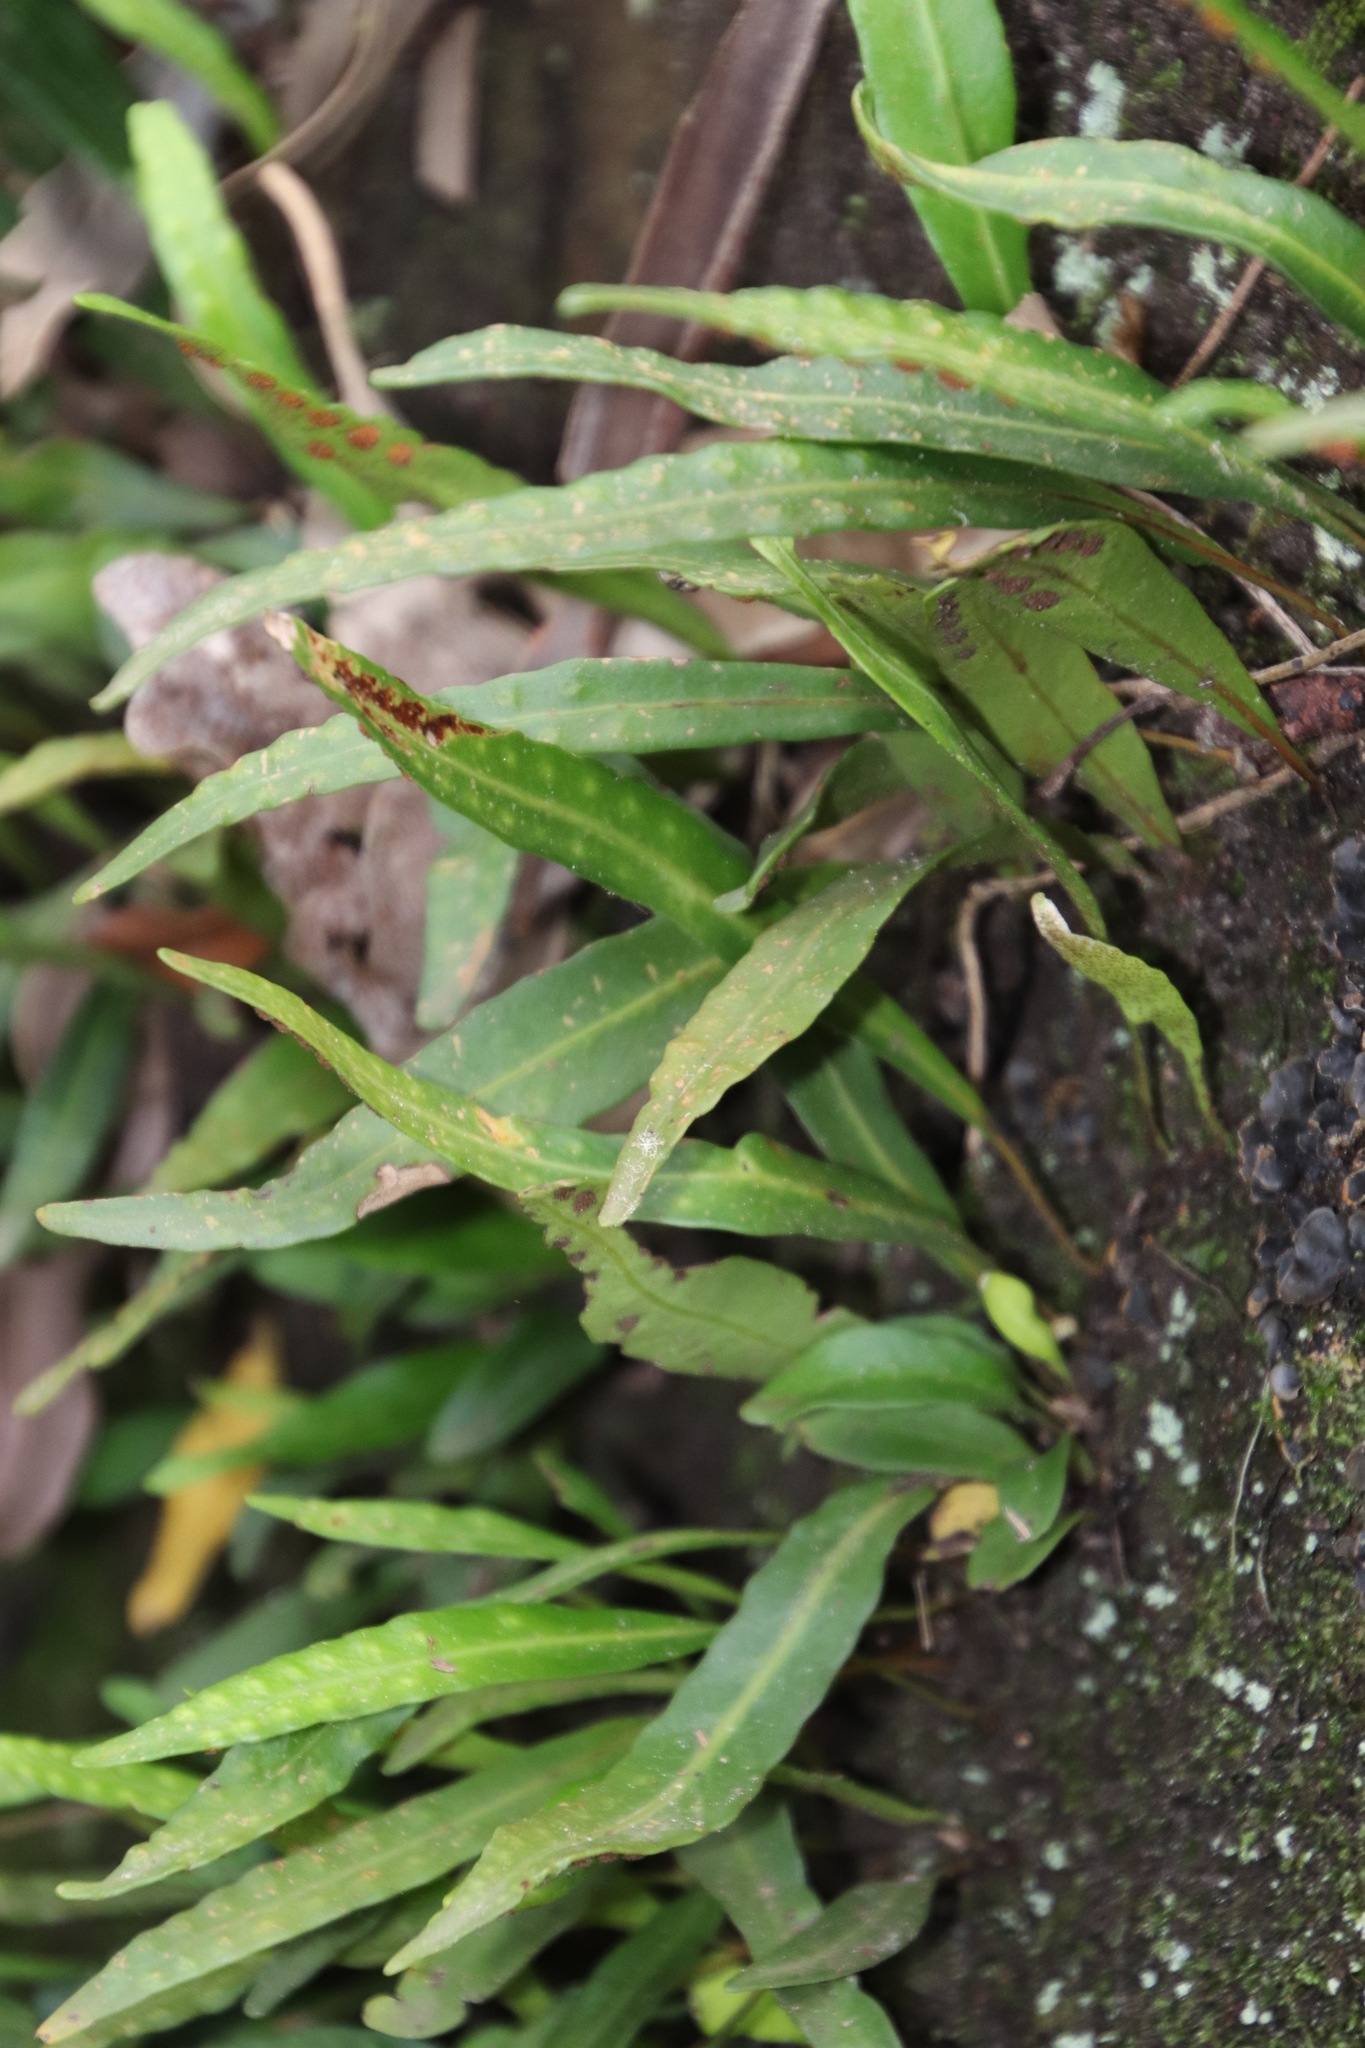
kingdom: Plantae
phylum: Tracheophyta
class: Polypodiopsida
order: Polypodiales
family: Polypodiaceae
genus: Pleopeltis
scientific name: Pleopeltis macrocarpa
